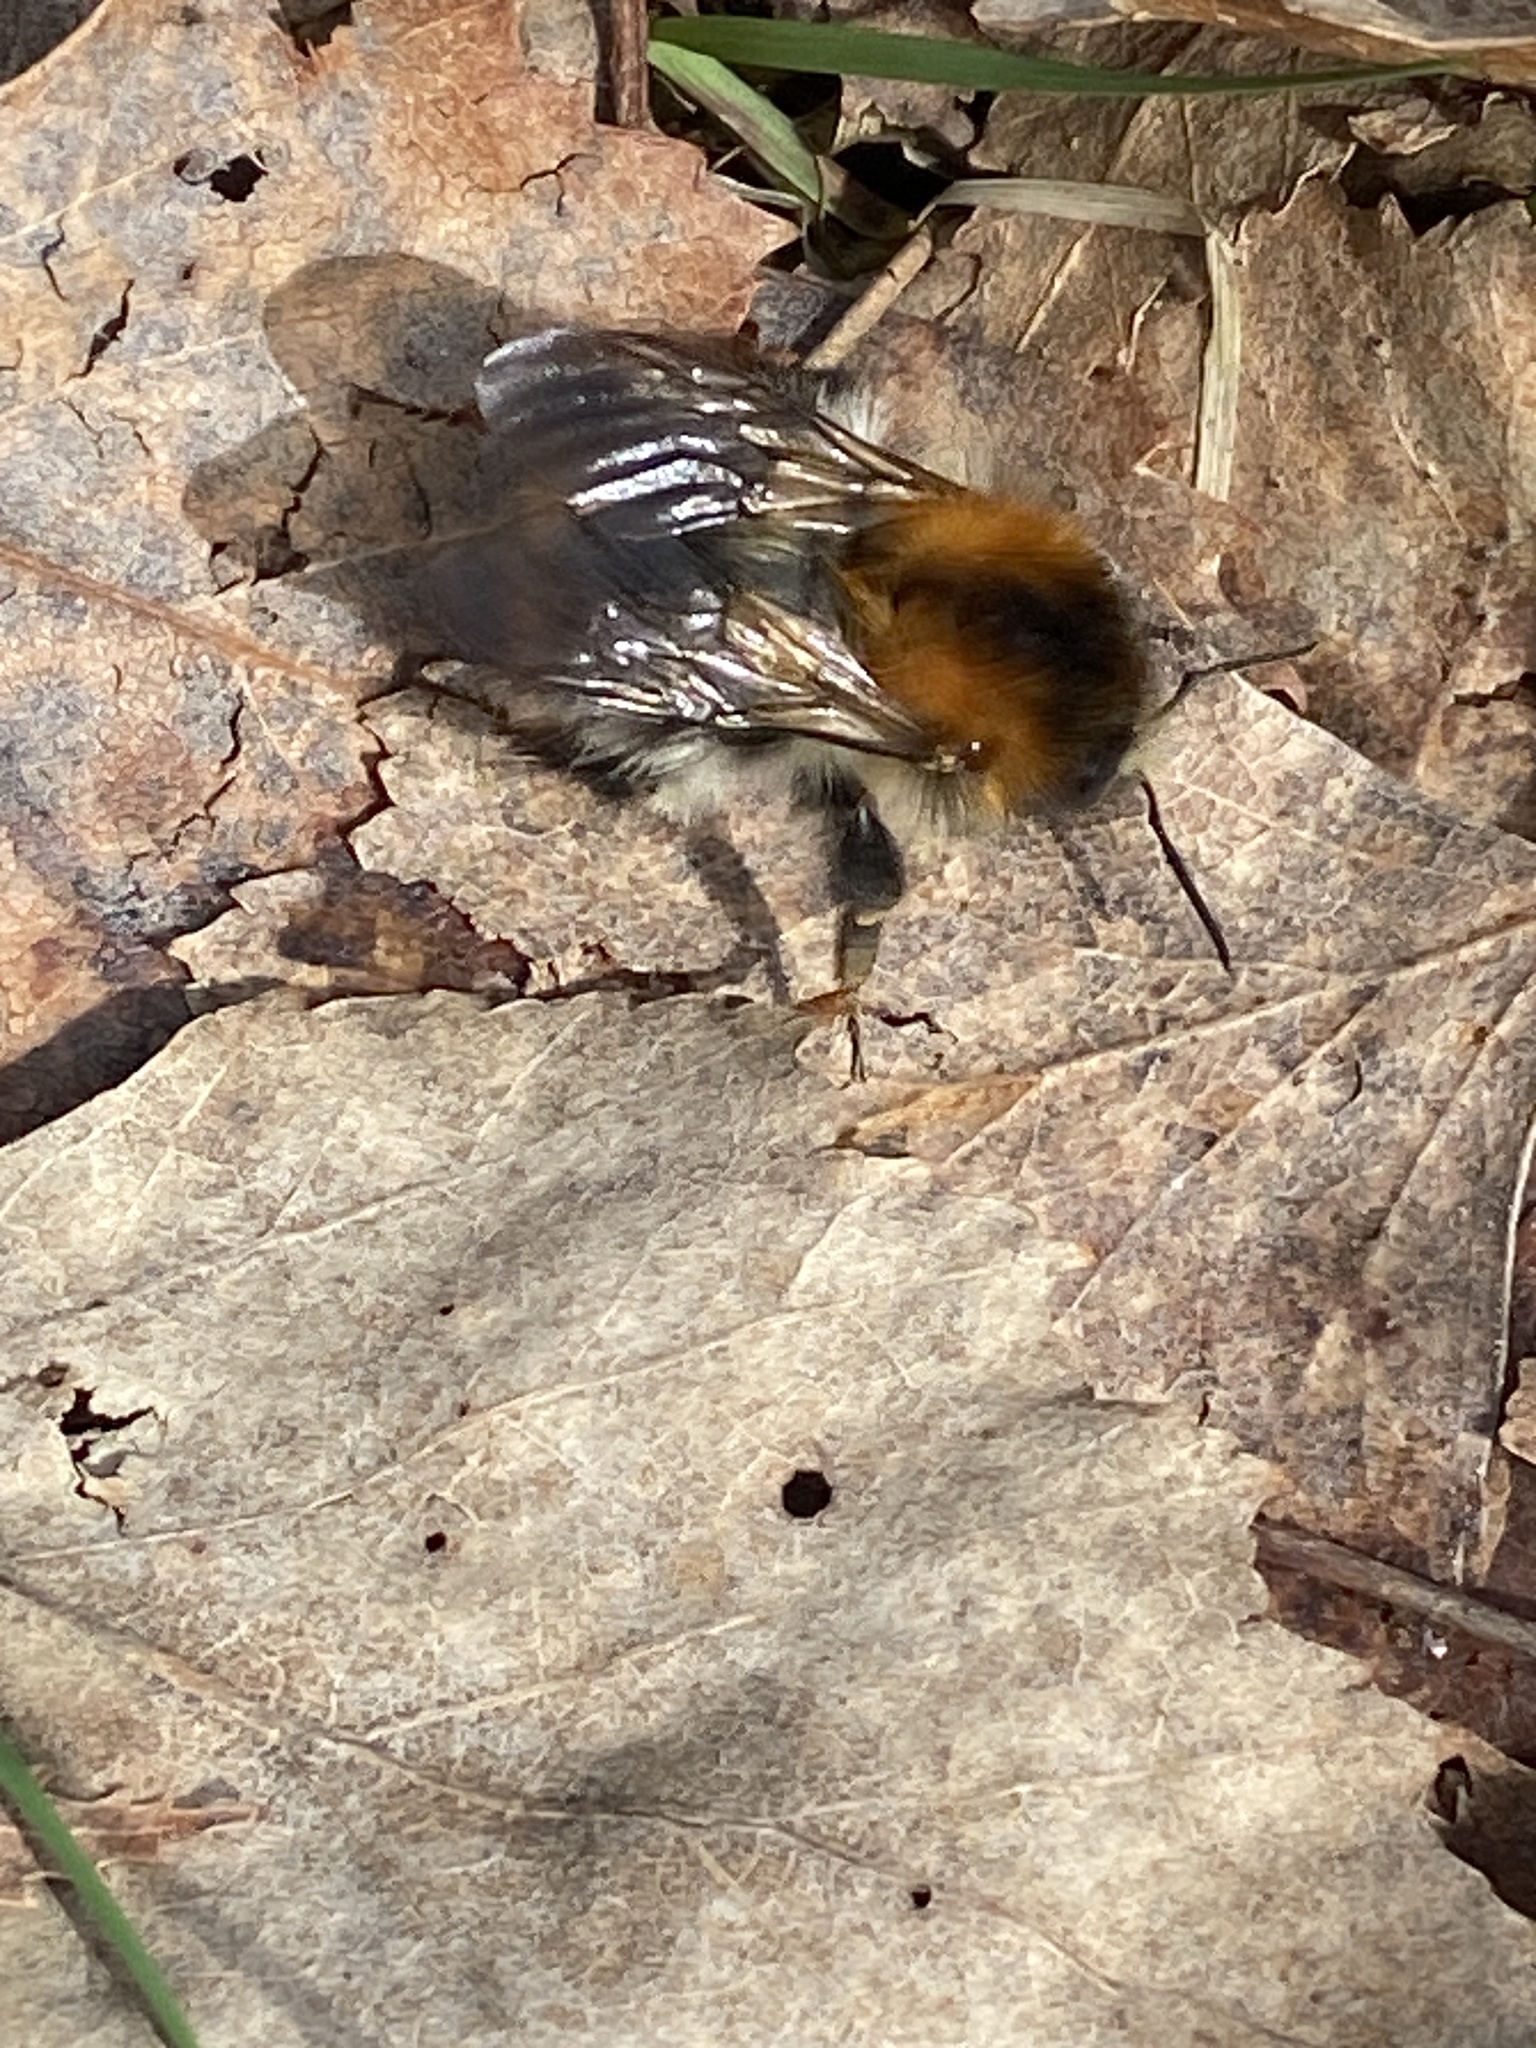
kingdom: Animalia
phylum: Arthropoda
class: Insecta
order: Hymenoptera
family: Apidae
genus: Bombus
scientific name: Bombus pascuorum
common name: Common carder bee
